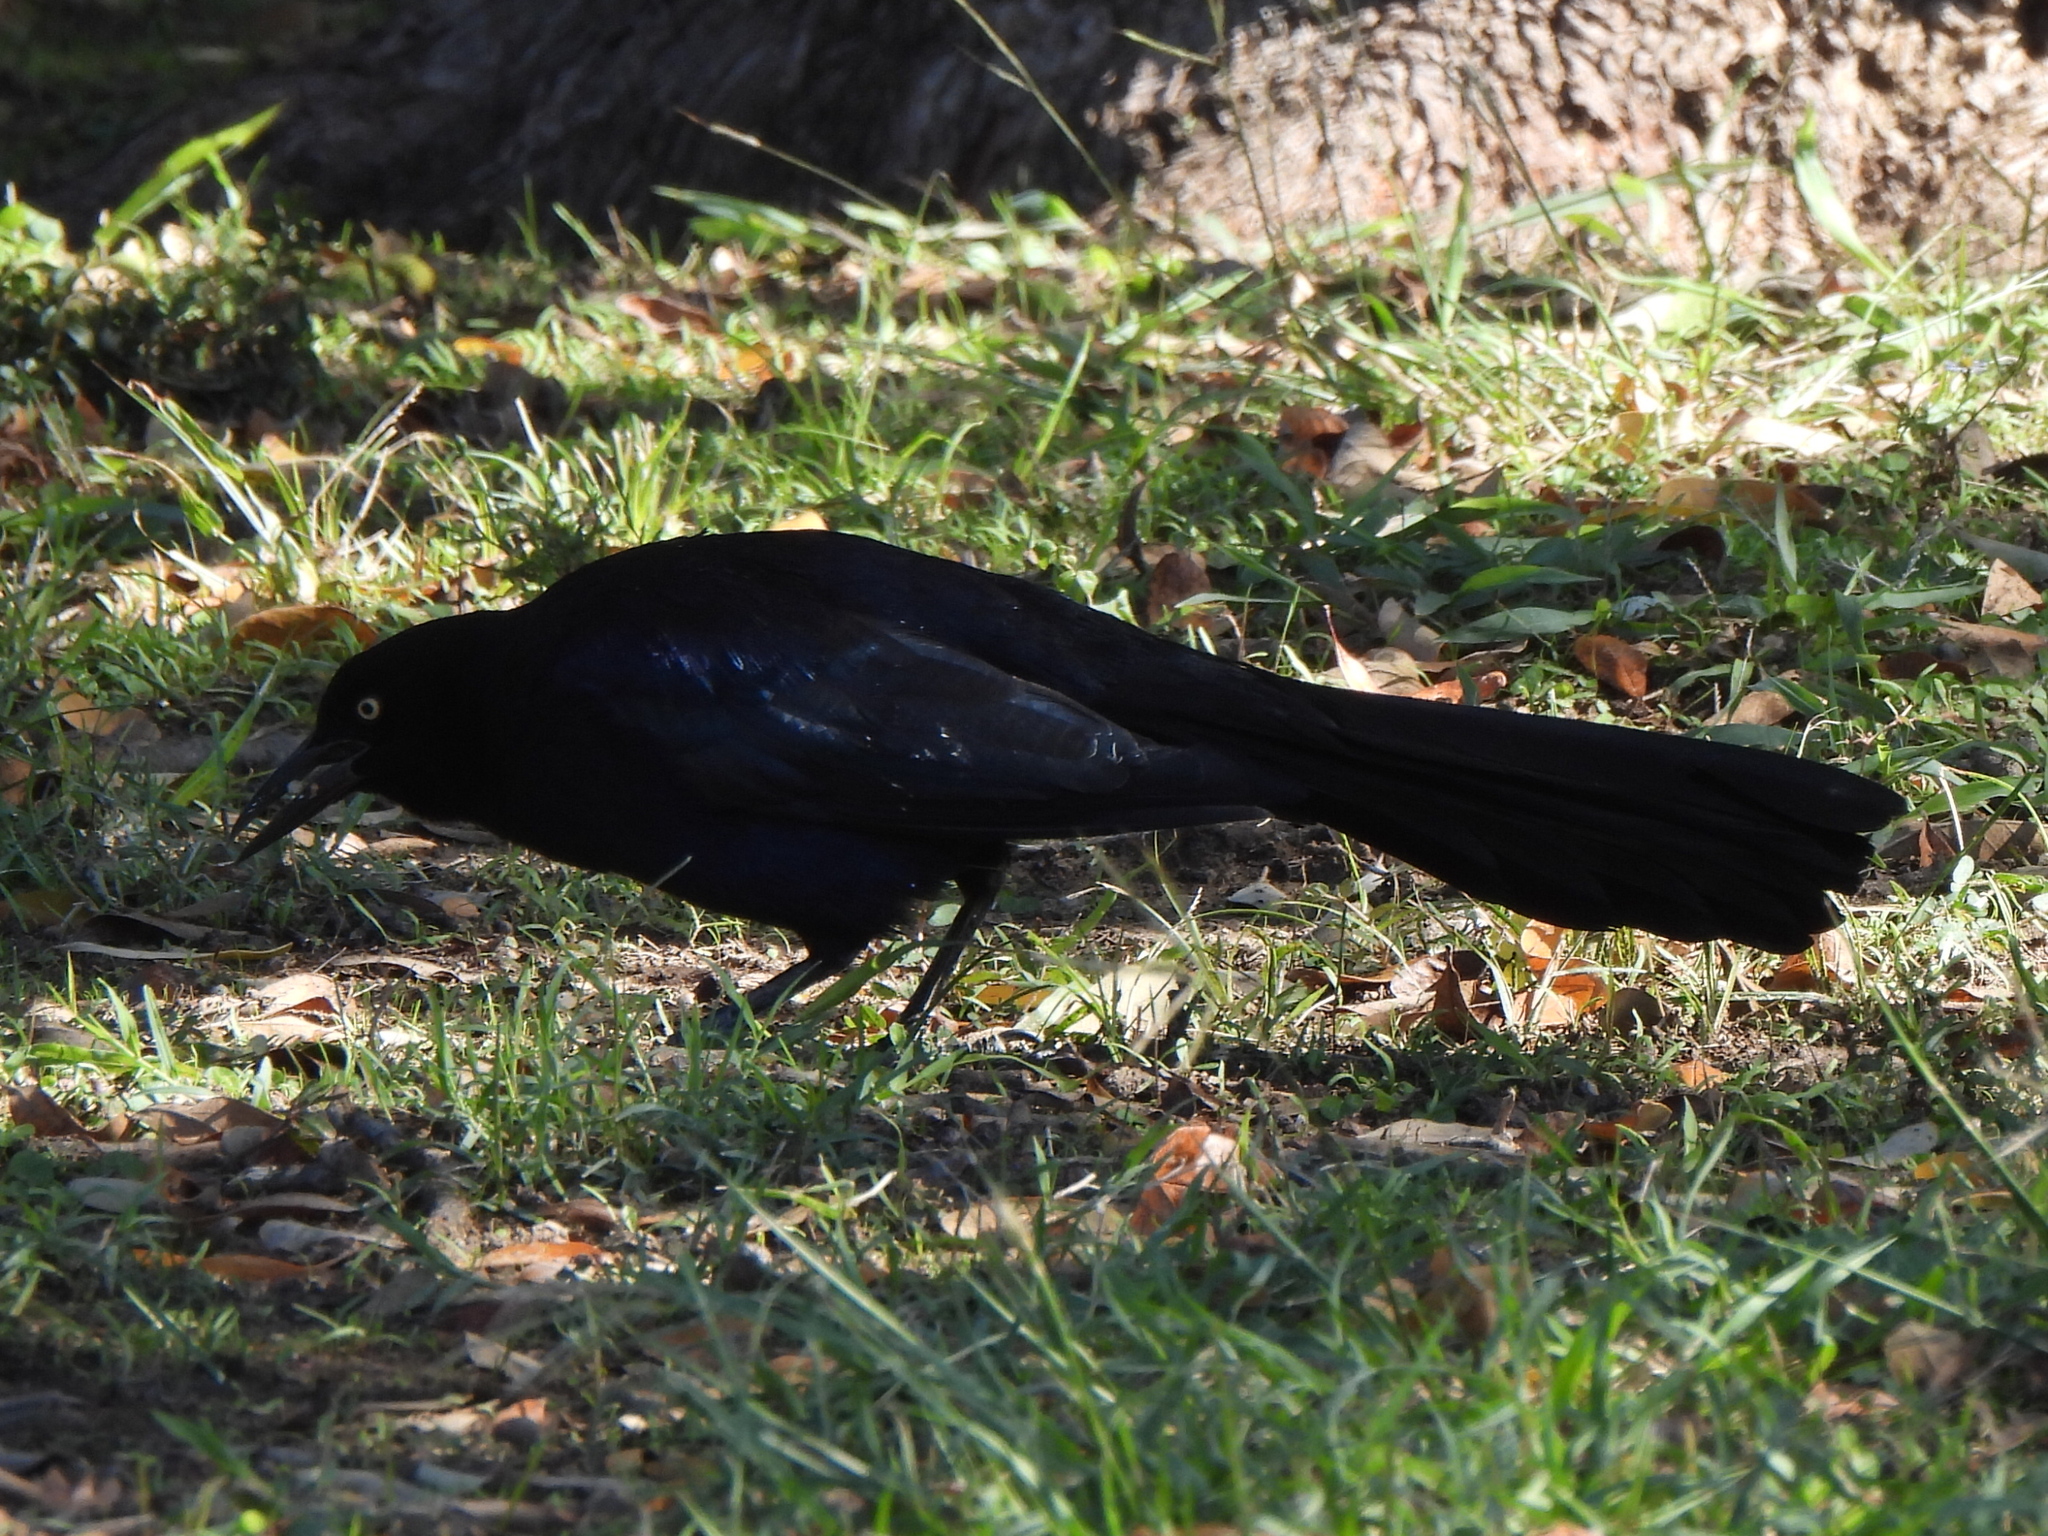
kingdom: Animalia
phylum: Chordata
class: Aves
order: Passeriformes
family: Icteridae
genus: Quiscalus
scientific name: Quiscalus mexicanus
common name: Great-tailed grackle
